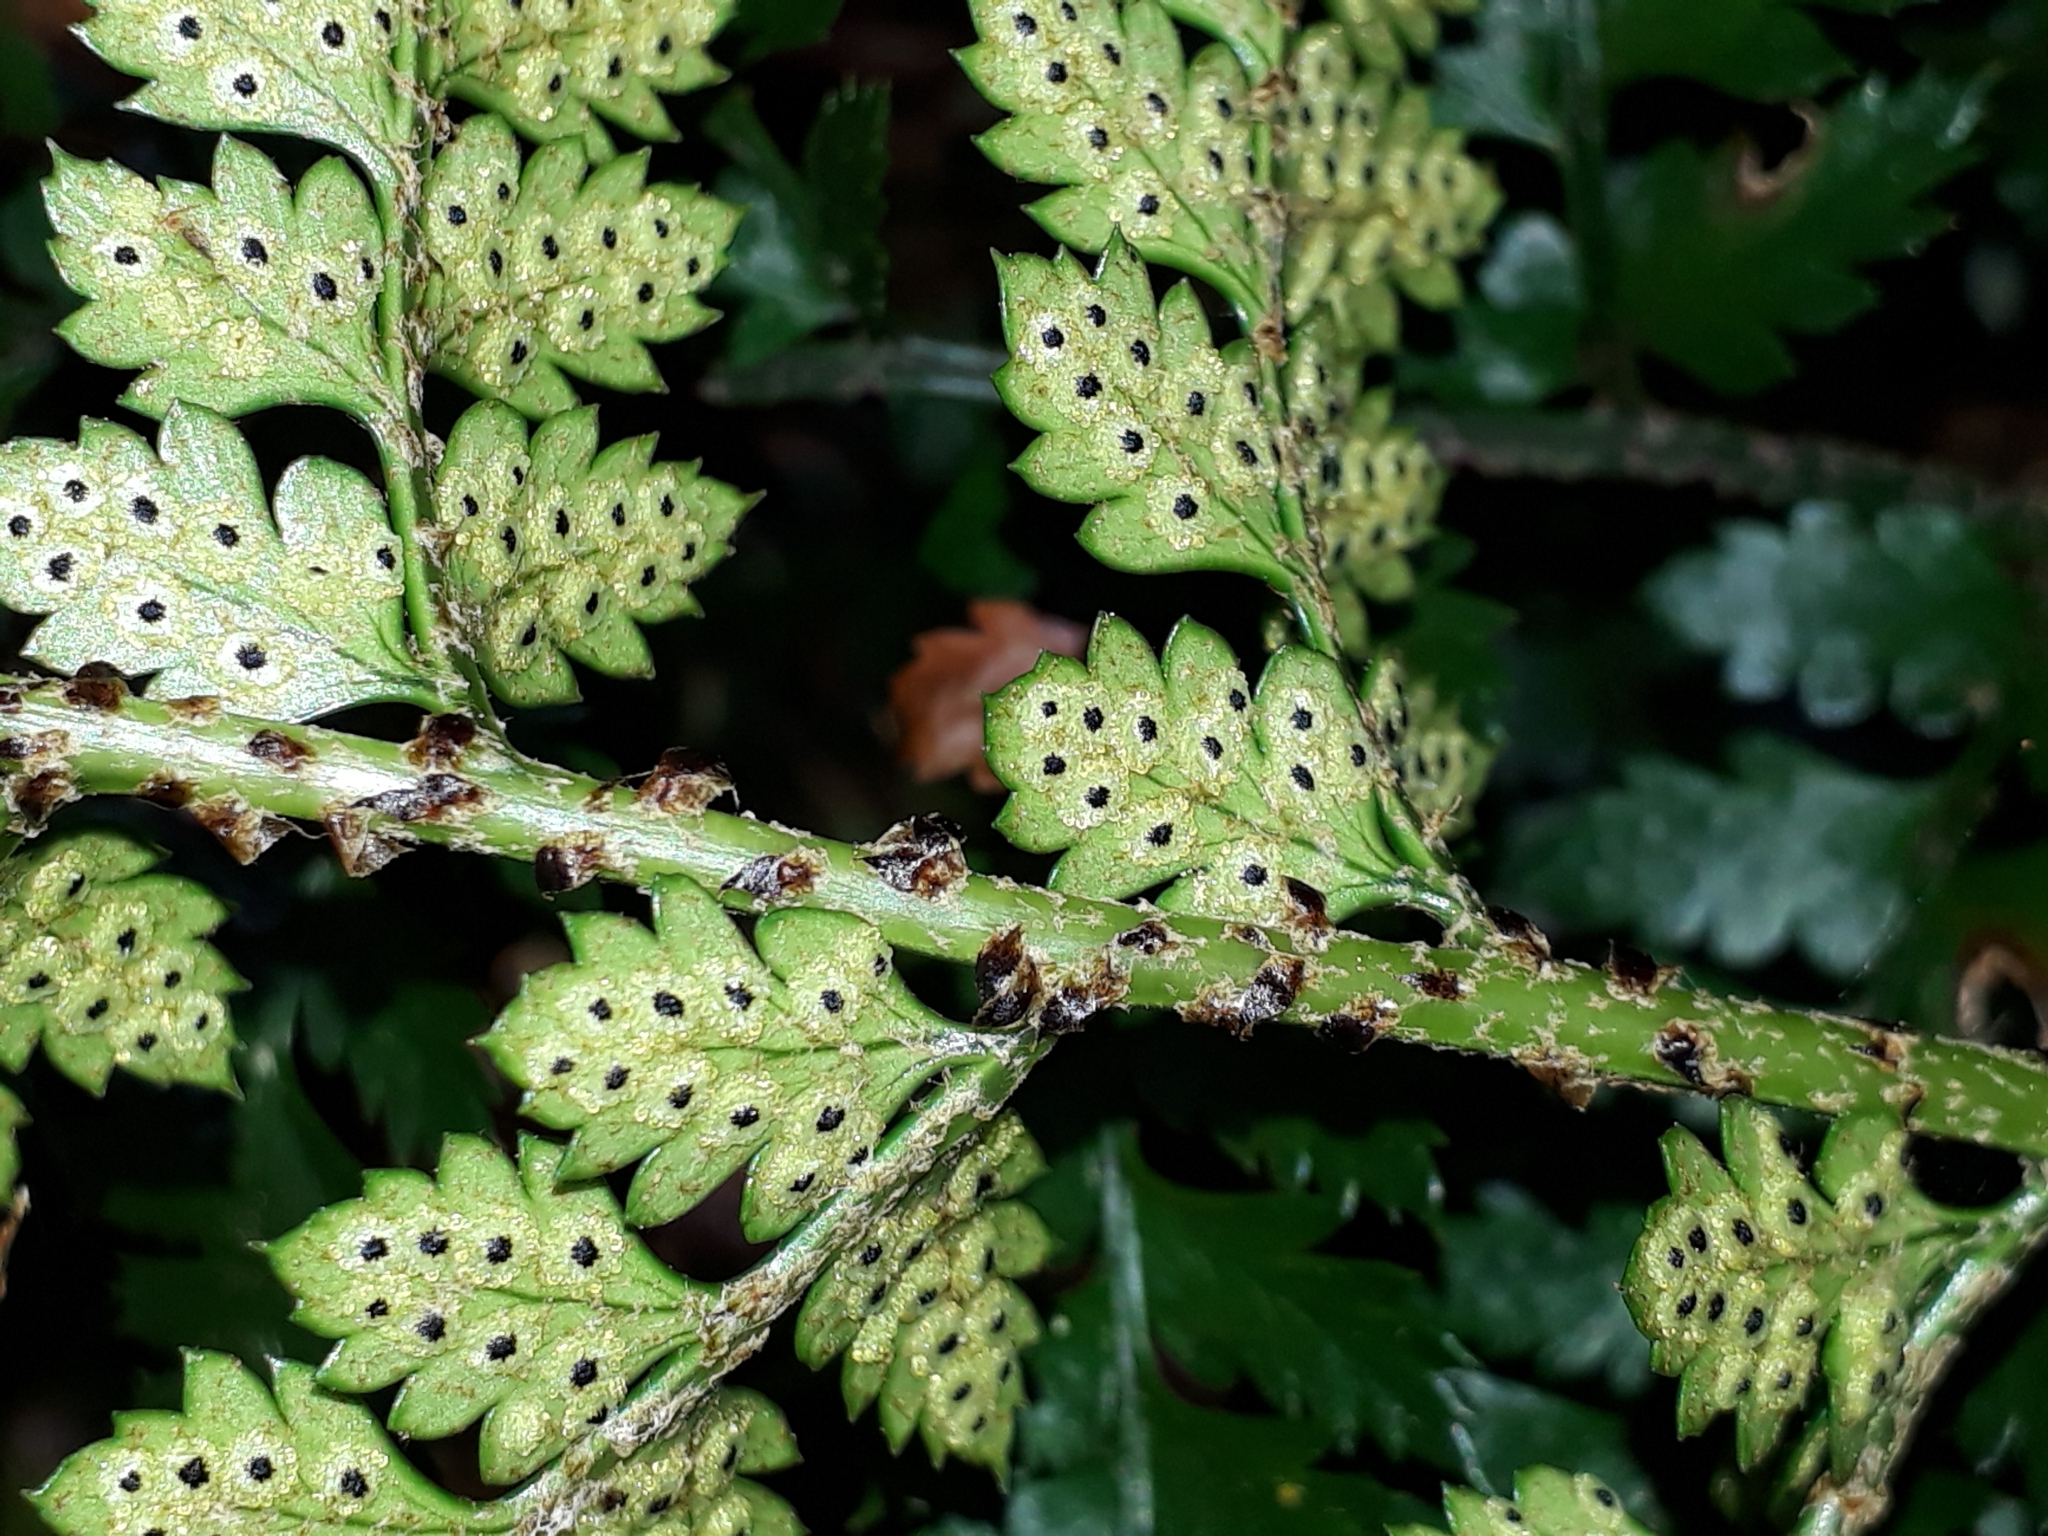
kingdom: Plantae
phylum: Tracheophyta
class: Polypodiopsida
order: Polypodiales
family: Dryopteridaceae
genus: Polystichum
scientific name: Polystichum oculatum
